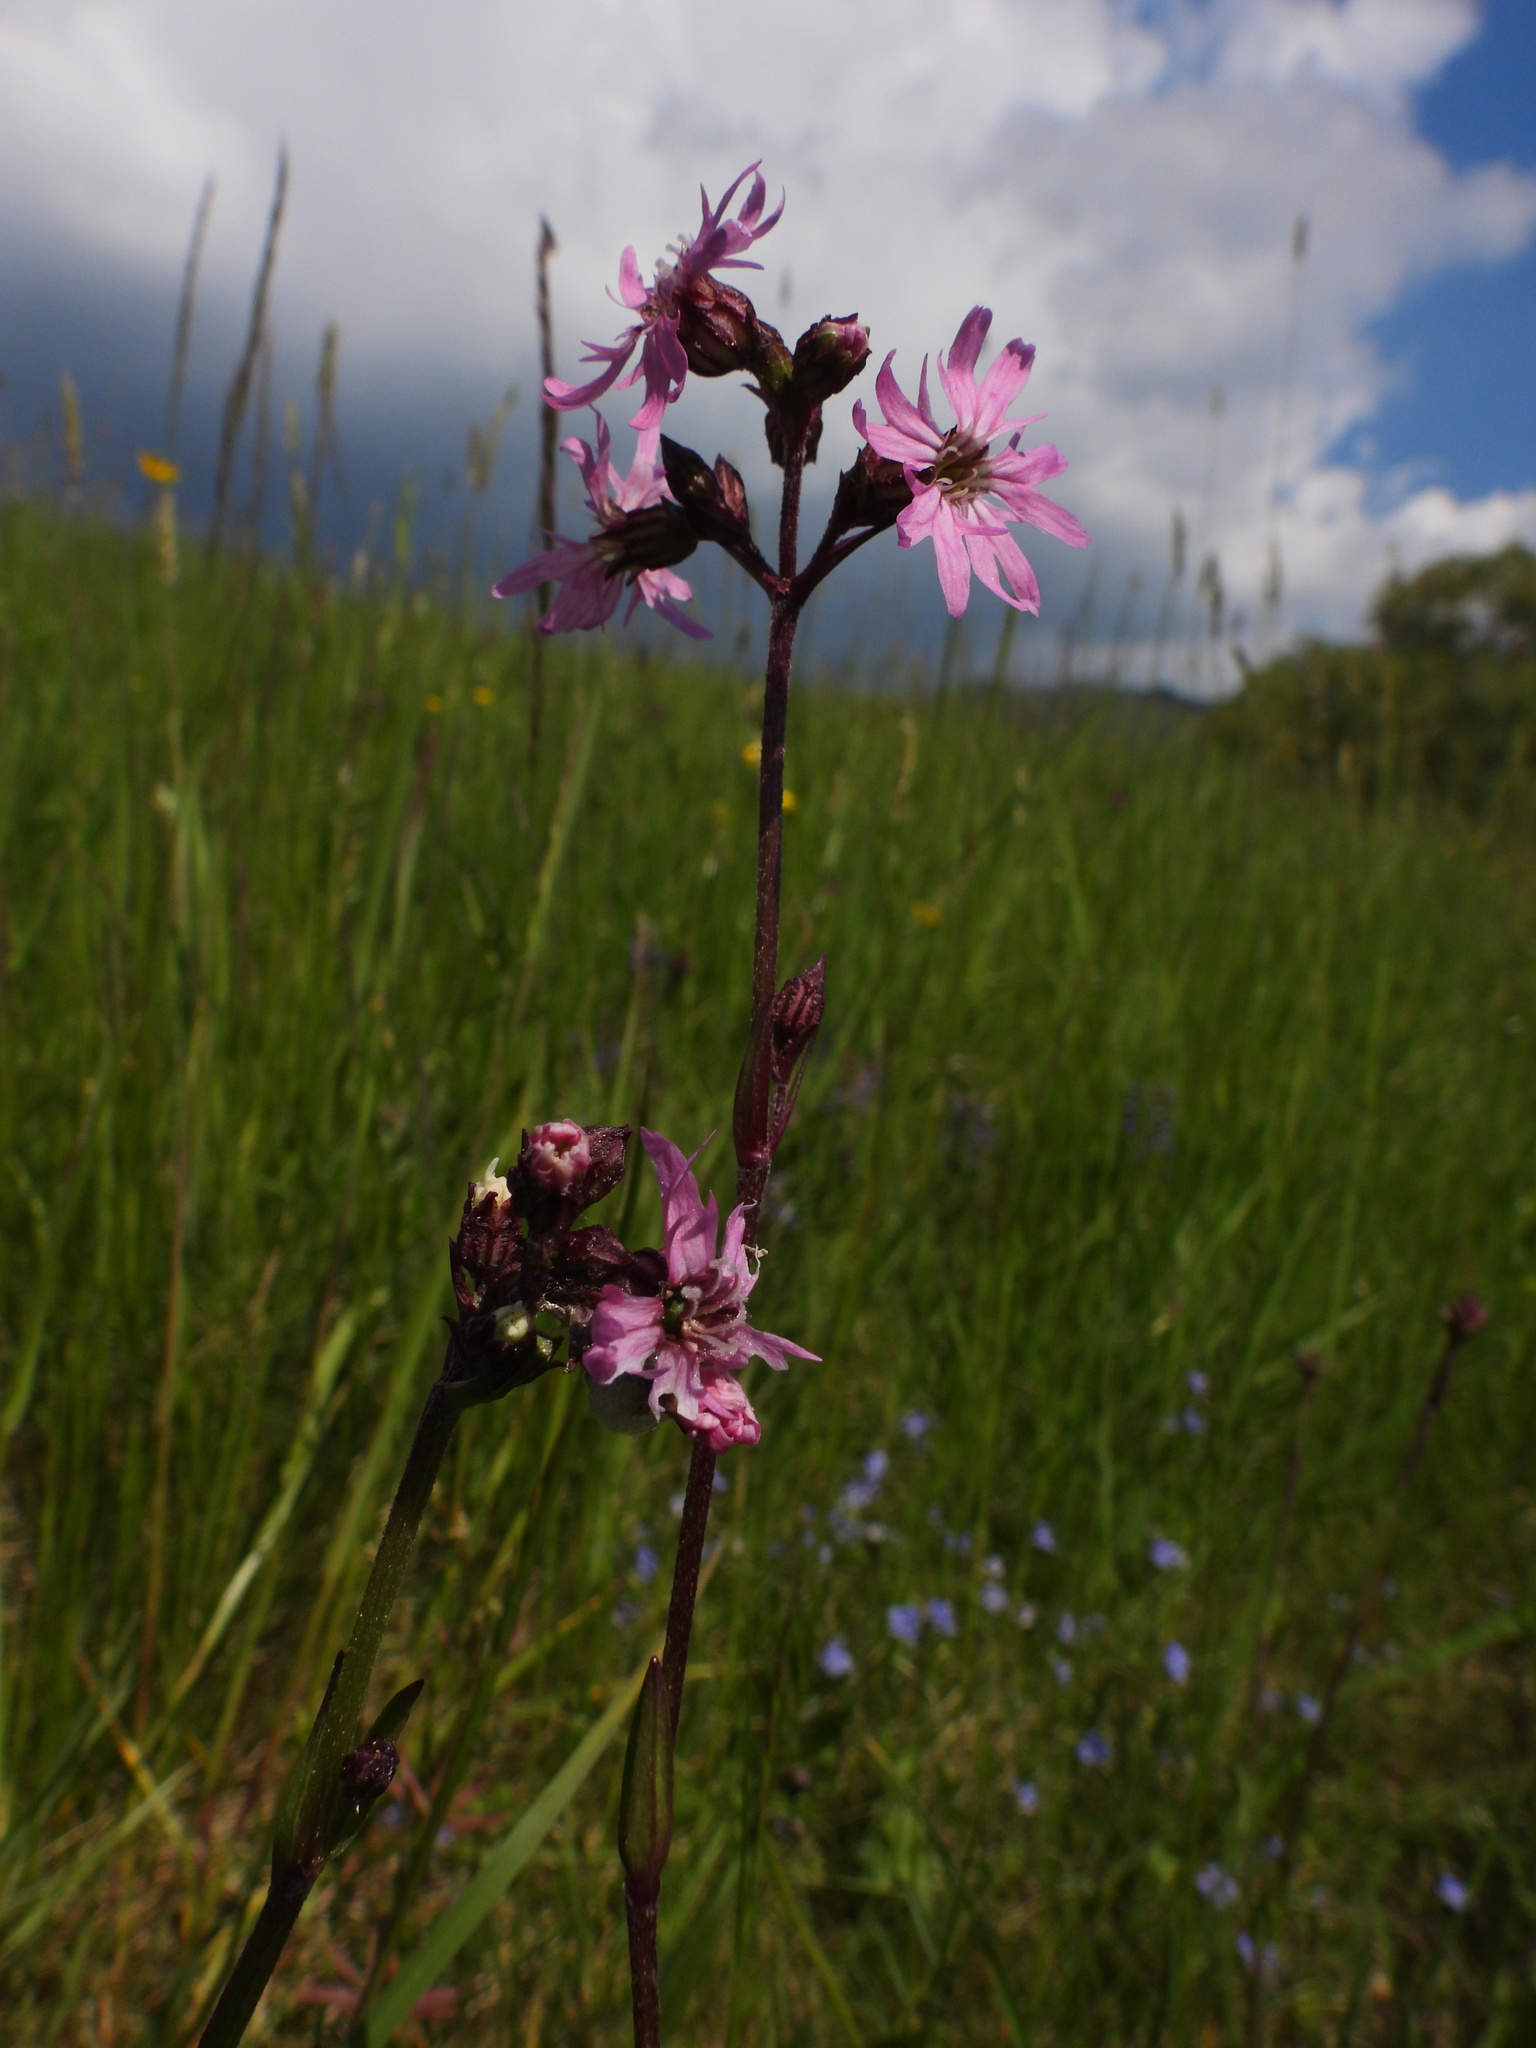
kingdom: Plantae
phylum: Tracheophyta
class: Magnoliopsida
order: Caryophyllales
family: Caryophyllaceae
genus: Silene
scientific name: Silene flos-cuculi
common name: Ragged-robin
